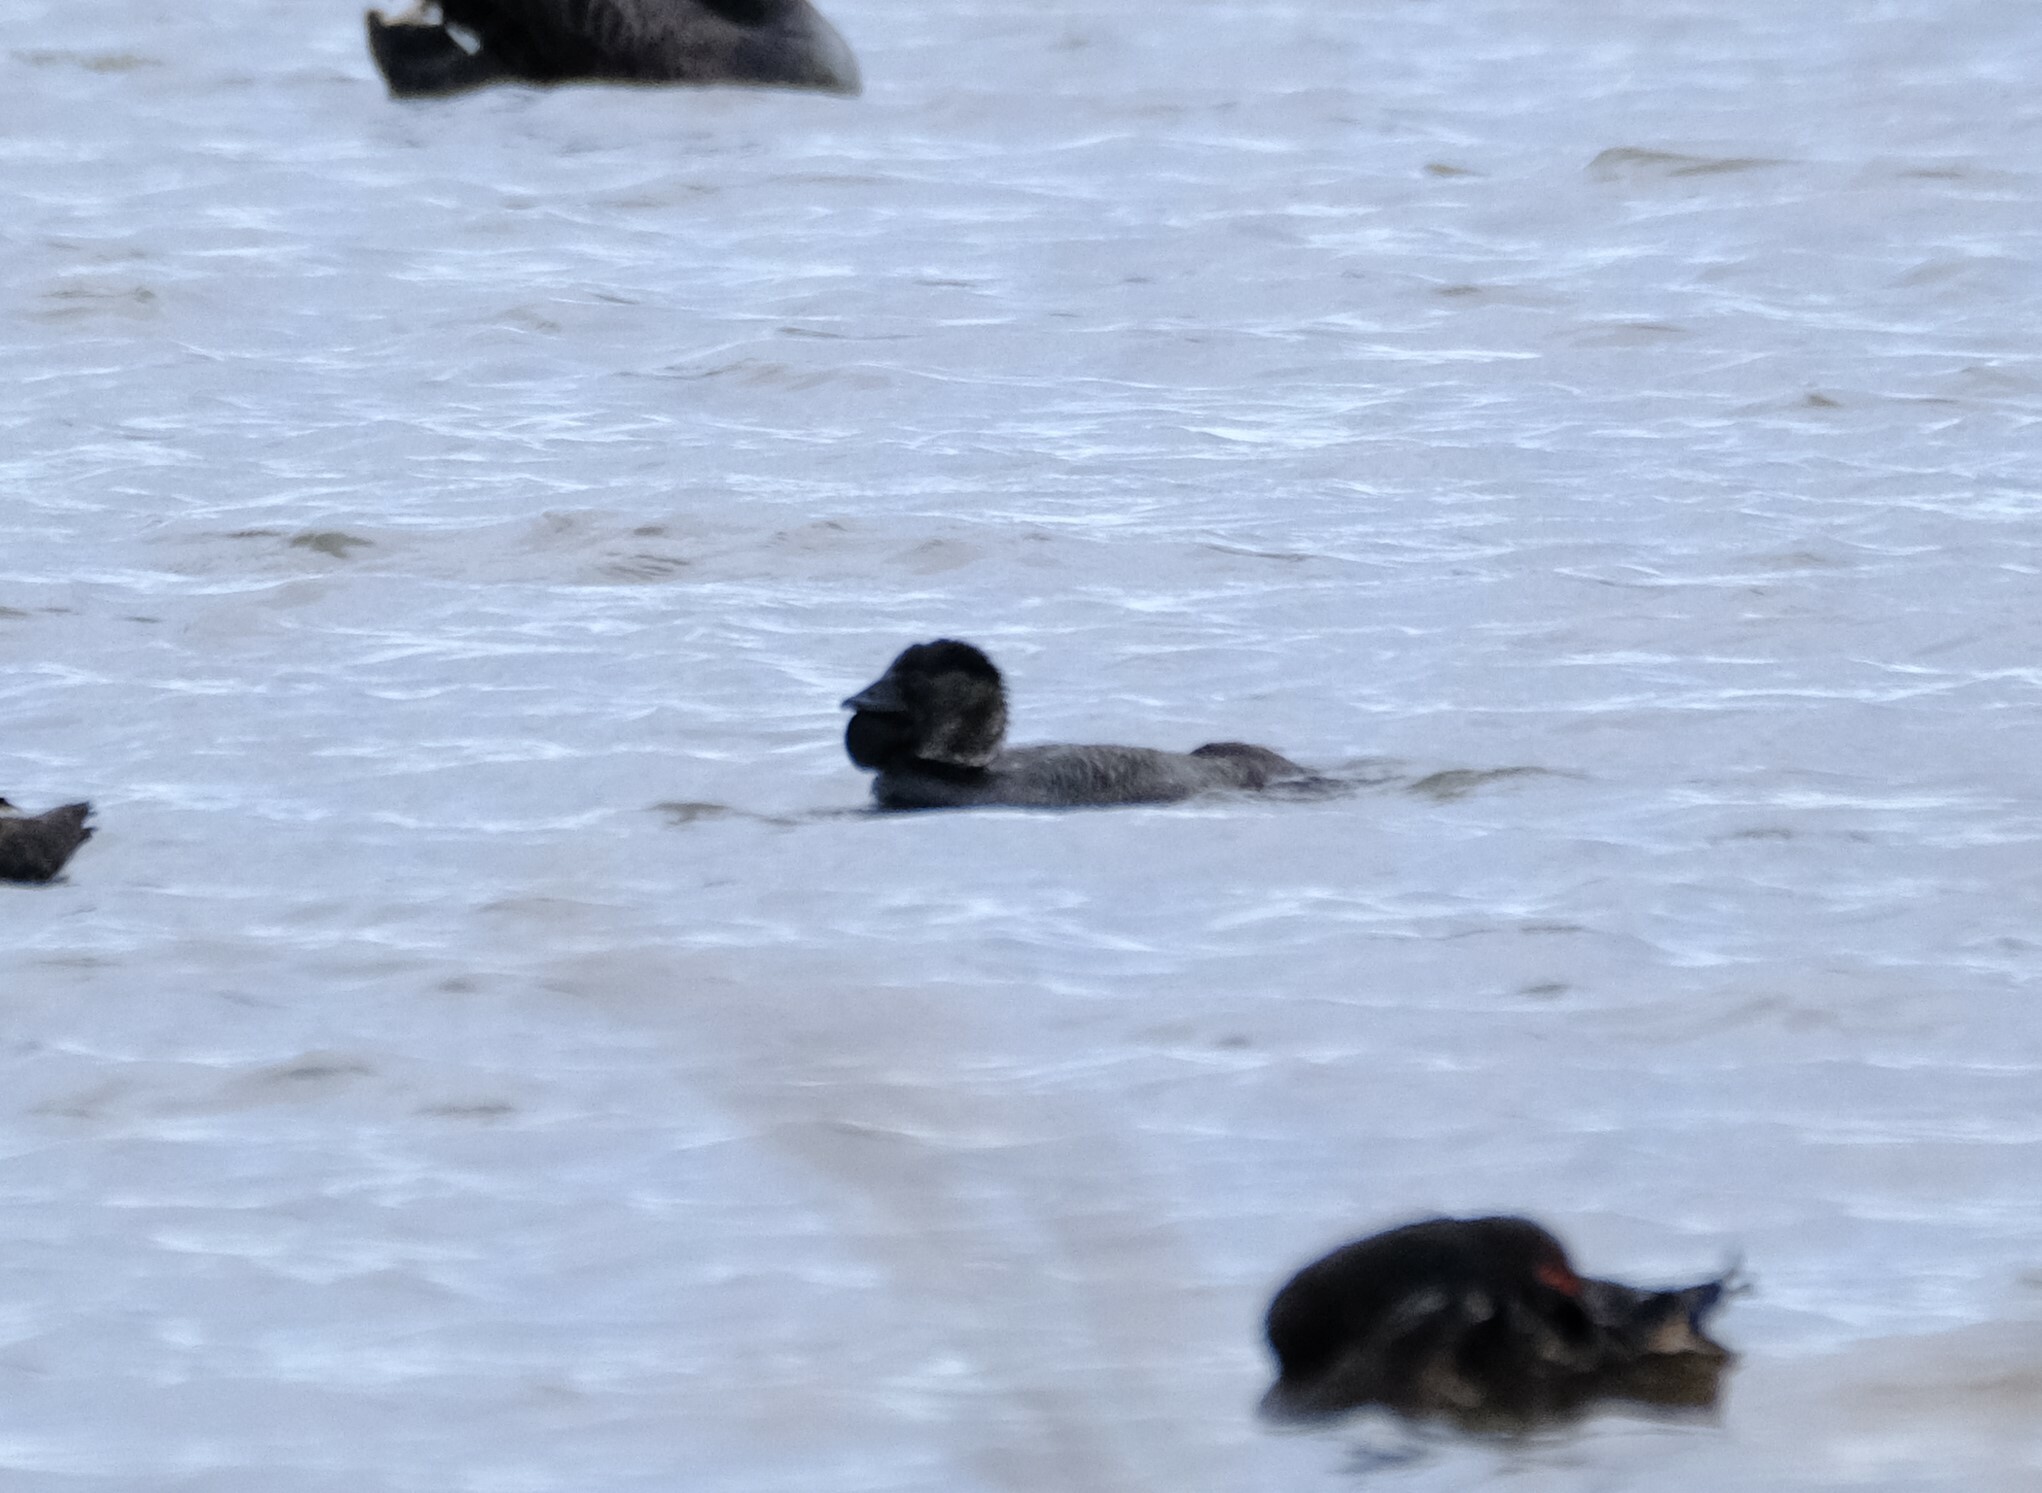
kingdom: Animalia
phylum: Chordata
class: Aves
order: Anseriformes
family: Anatidae
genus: Biziura
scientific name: Biziura lobata
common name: Musk duck
